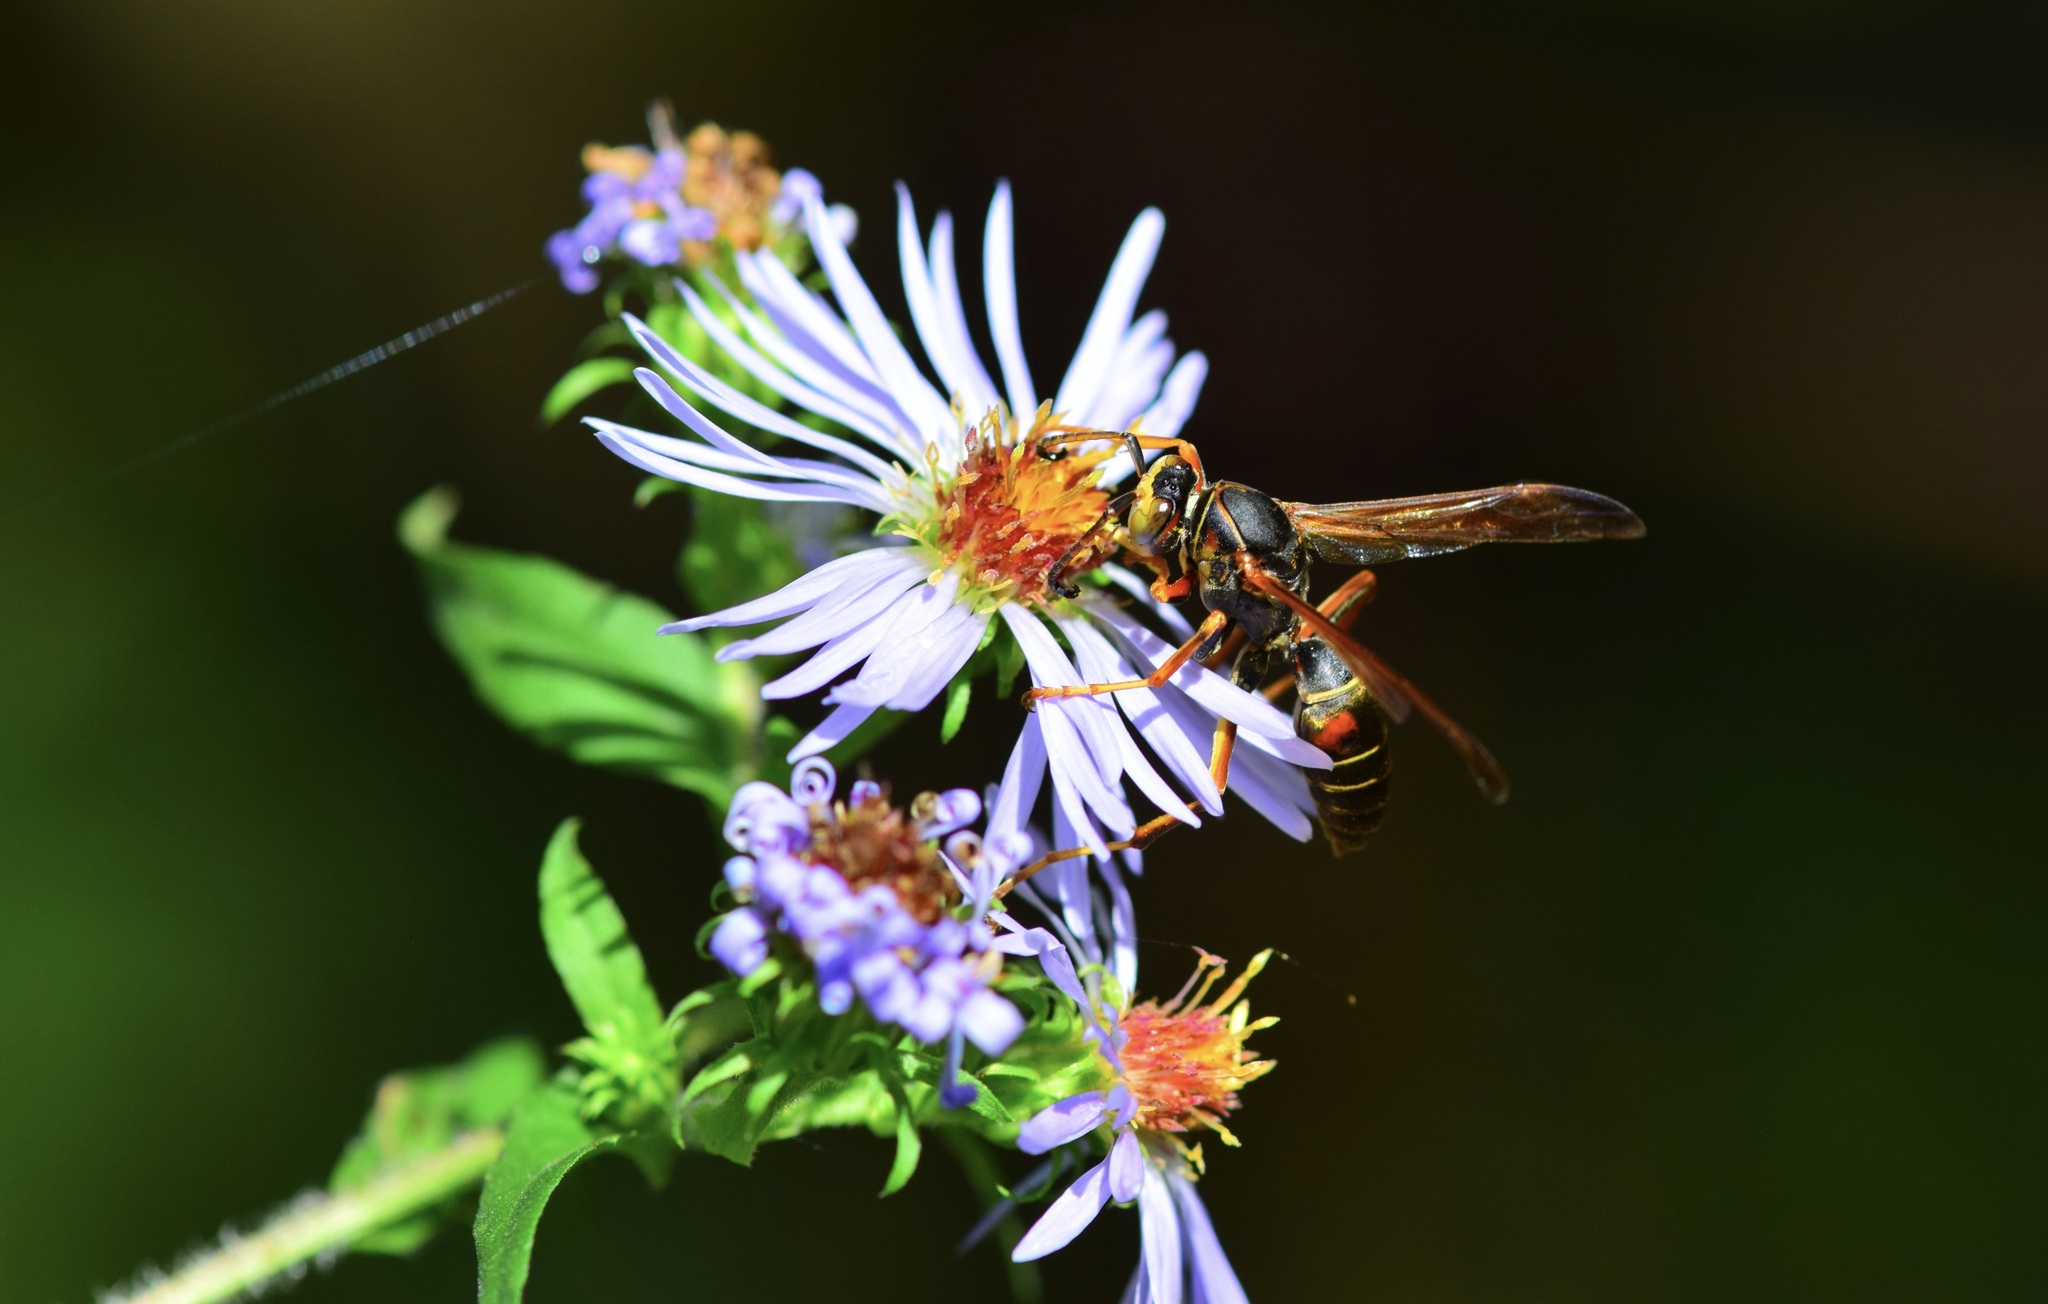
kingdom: Animalia
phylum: Arthropoda
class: Insecta
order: Hymenoptera
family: Eumenidae
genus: Polistes
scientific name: Polistes fuscatus
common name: Dark paper wasp
